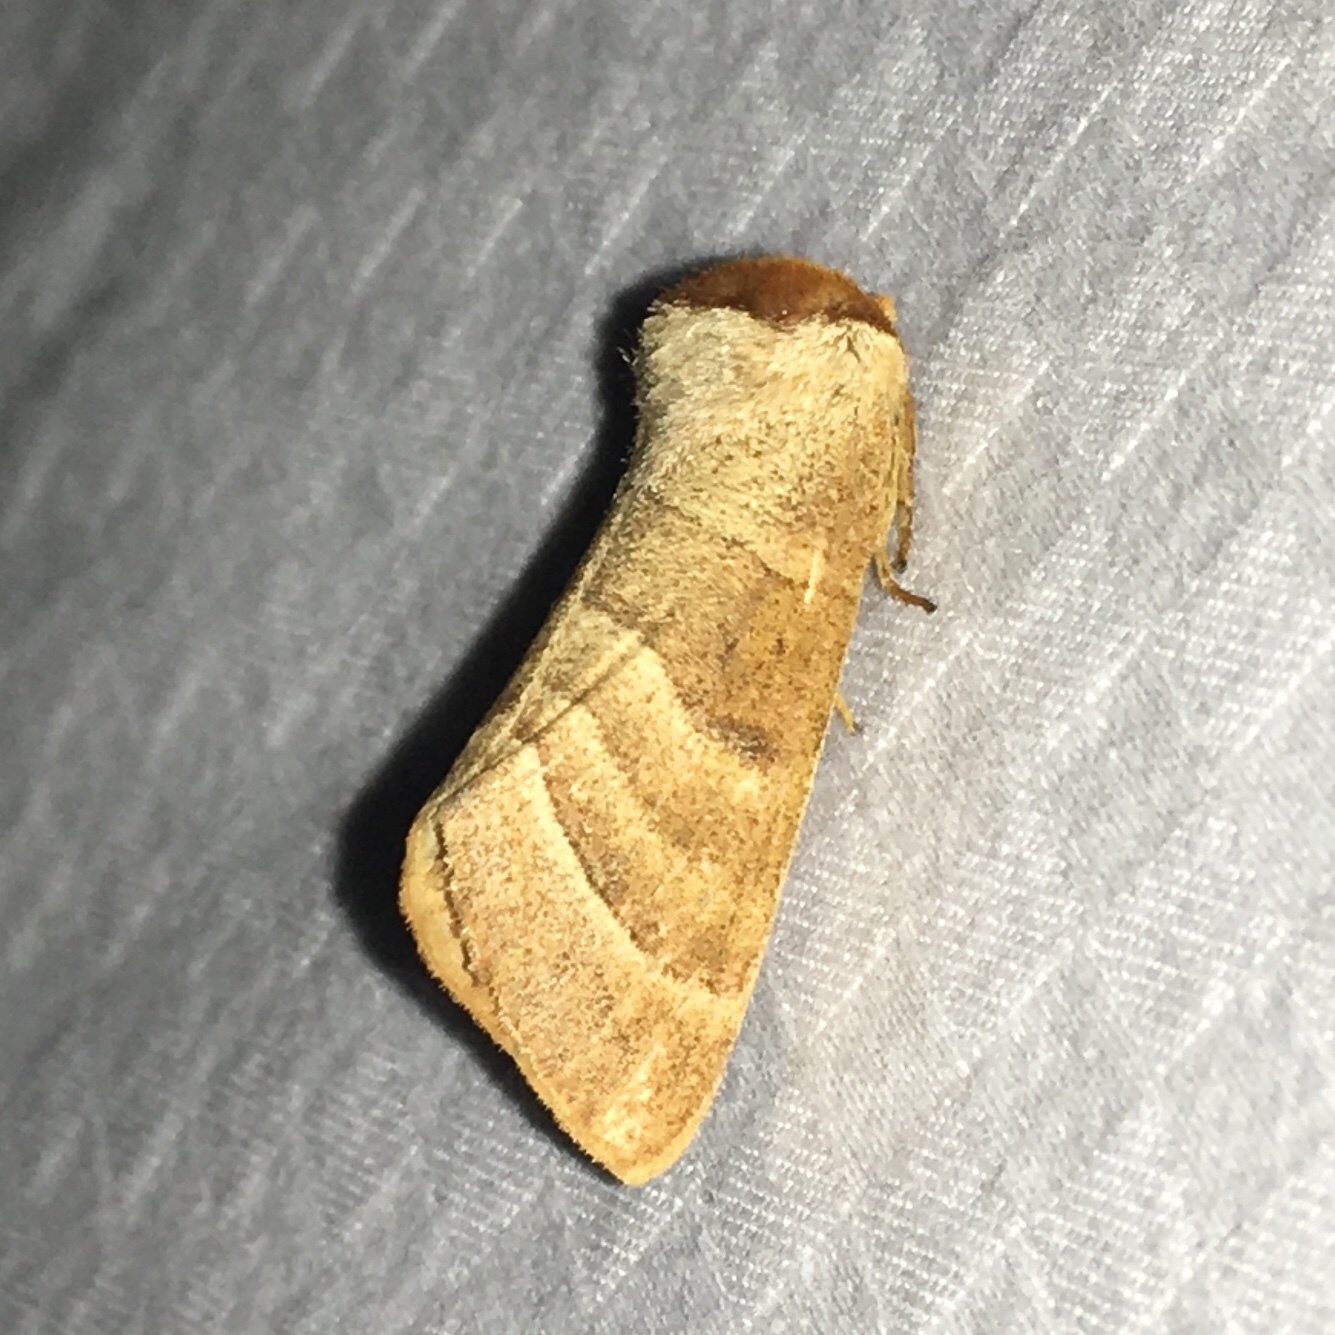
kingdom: Animalia
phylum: Arthropoda
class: Insecta
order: Lepidoptera
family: Notodontidae
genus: Datana
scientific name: Datana integerrima
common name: Walnut caterpillar
